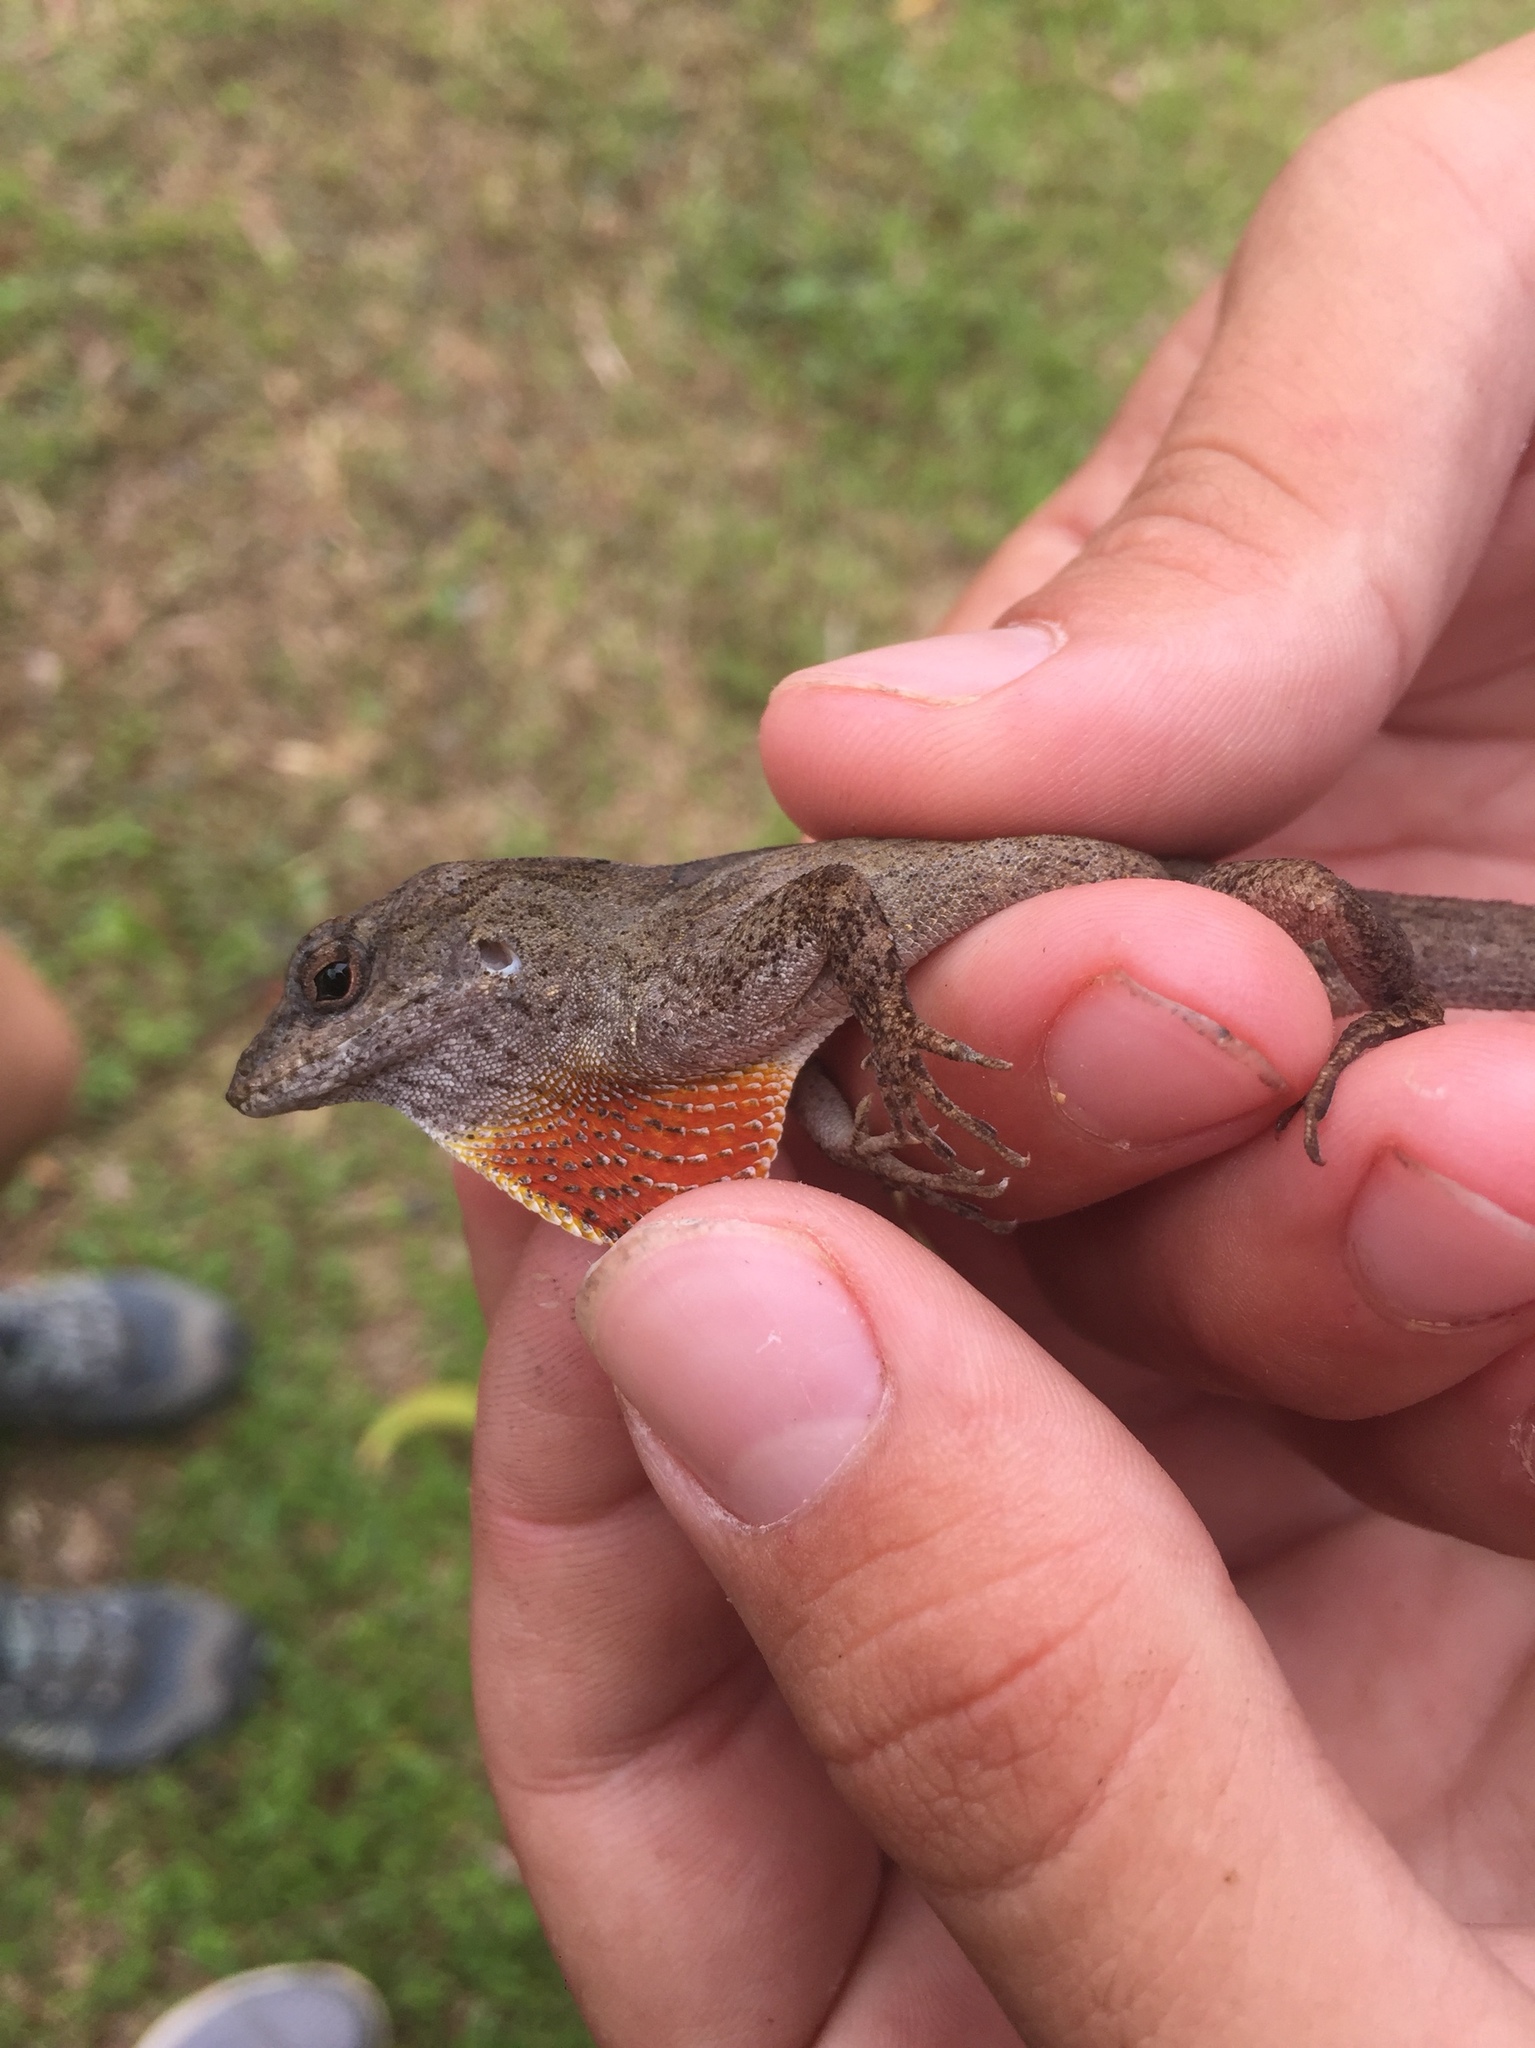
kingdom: Animalia
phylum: Chordata
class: Squamata
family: Dactyloidae
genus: Anolis
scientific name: Anolis sagrei
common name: Brown anole
